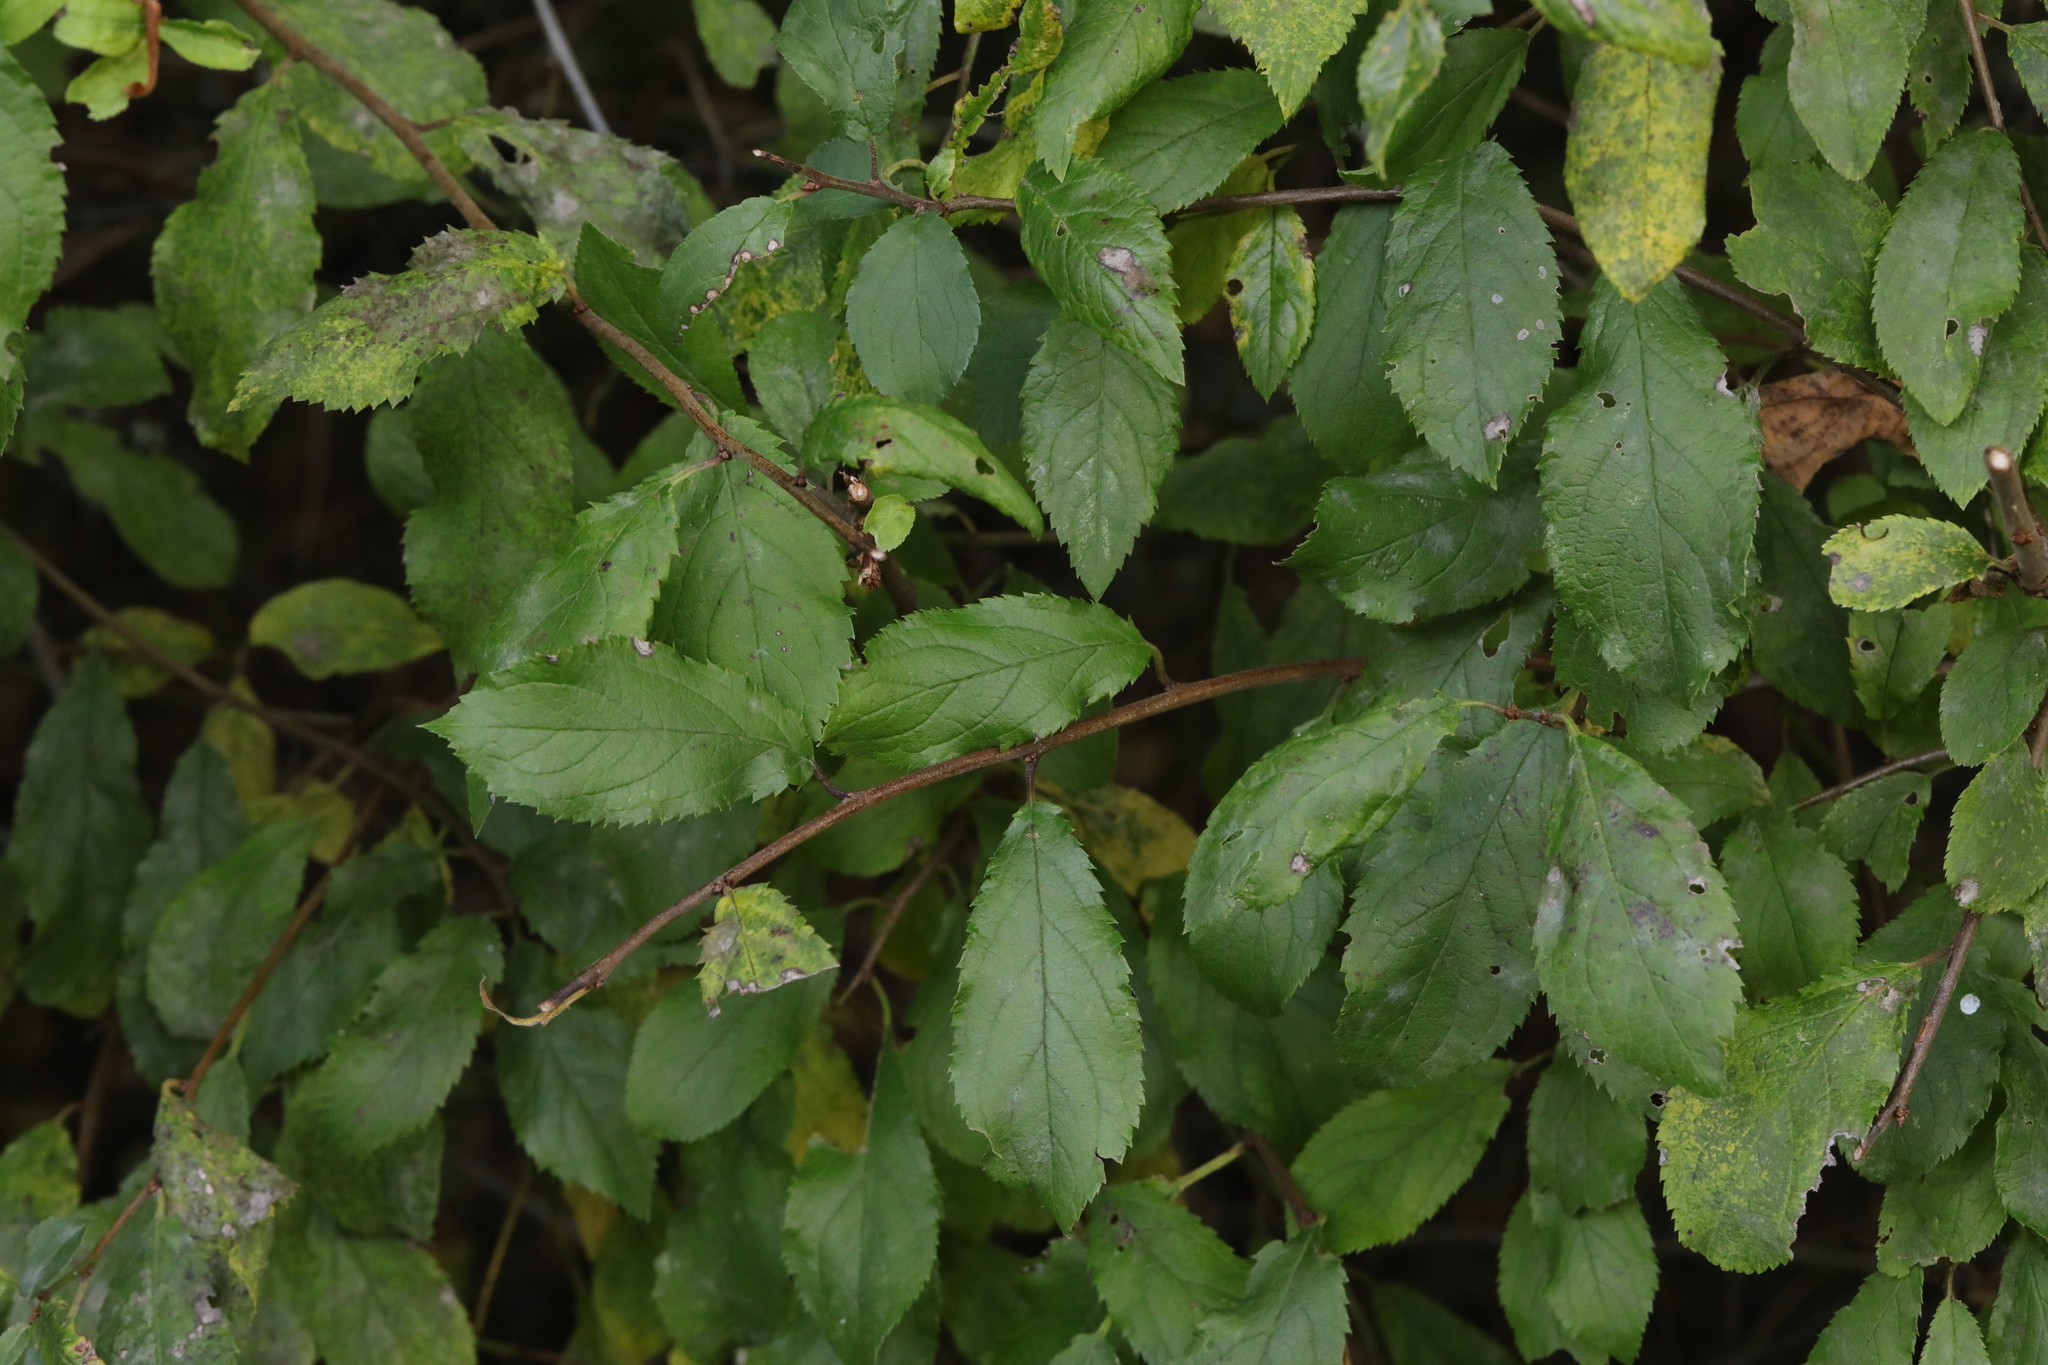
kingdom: Plantae
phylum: Tracheophyta
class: Magnoliopsida
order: Rosales
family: Rosaceae
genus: Prunus
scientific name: Prunus spinosa
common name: Blackthorn
